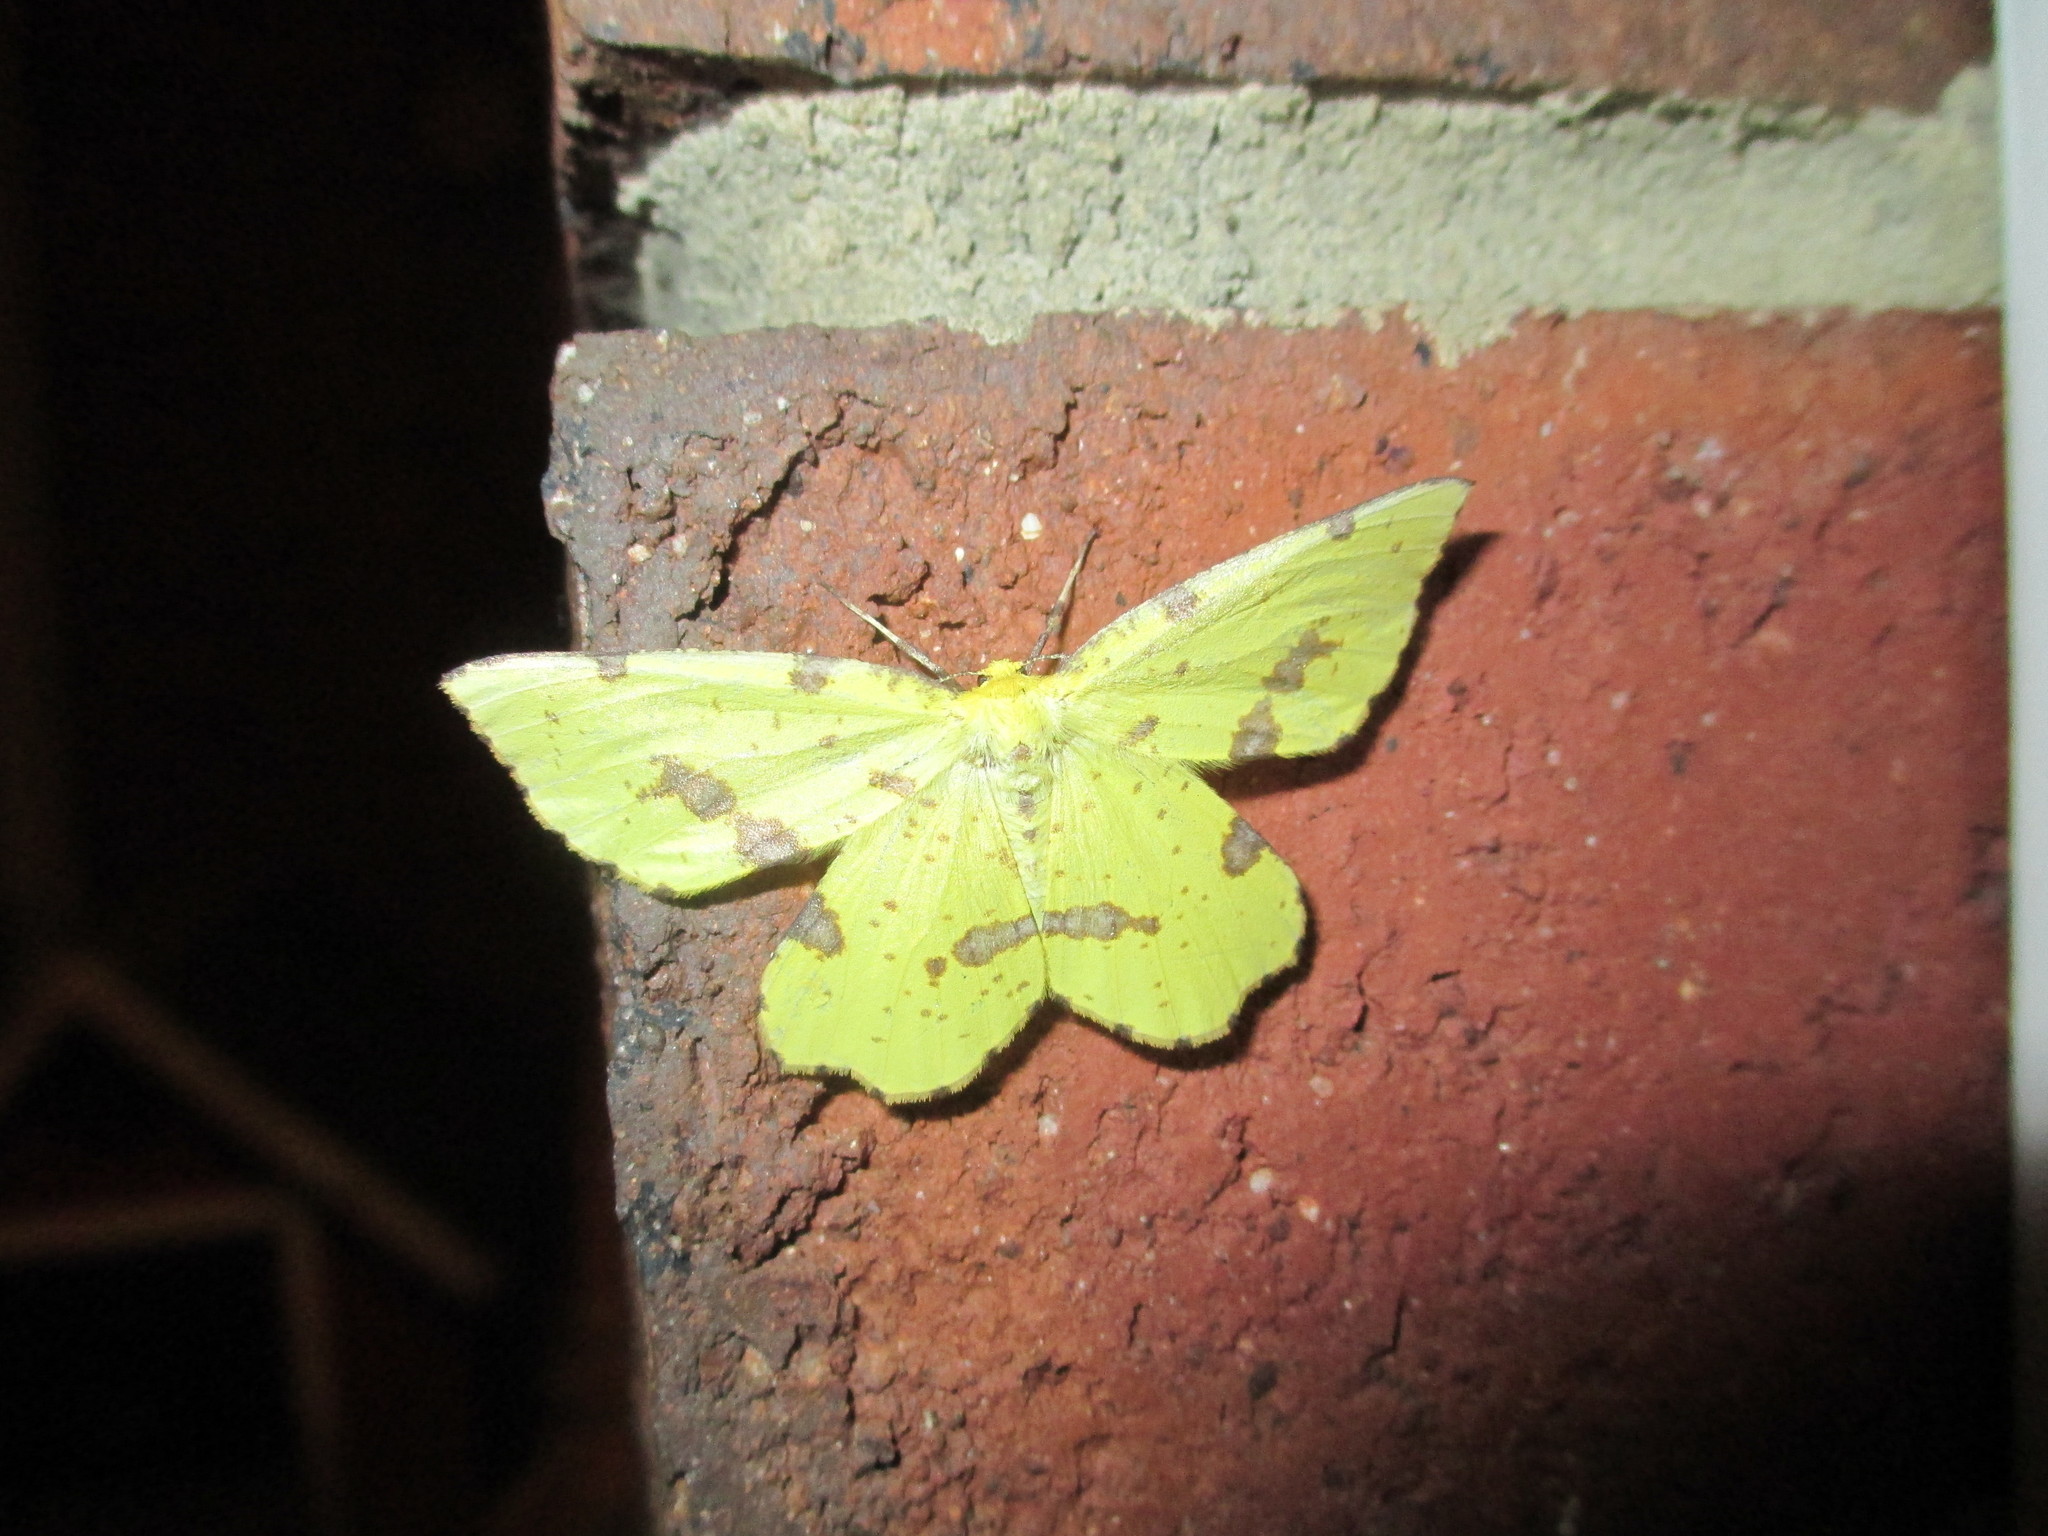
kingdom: Animalia
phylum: Arthropoda
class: Insecta
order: Lepidoptera
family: Geometridae
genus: Xanthotype
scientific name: Xanthotype
